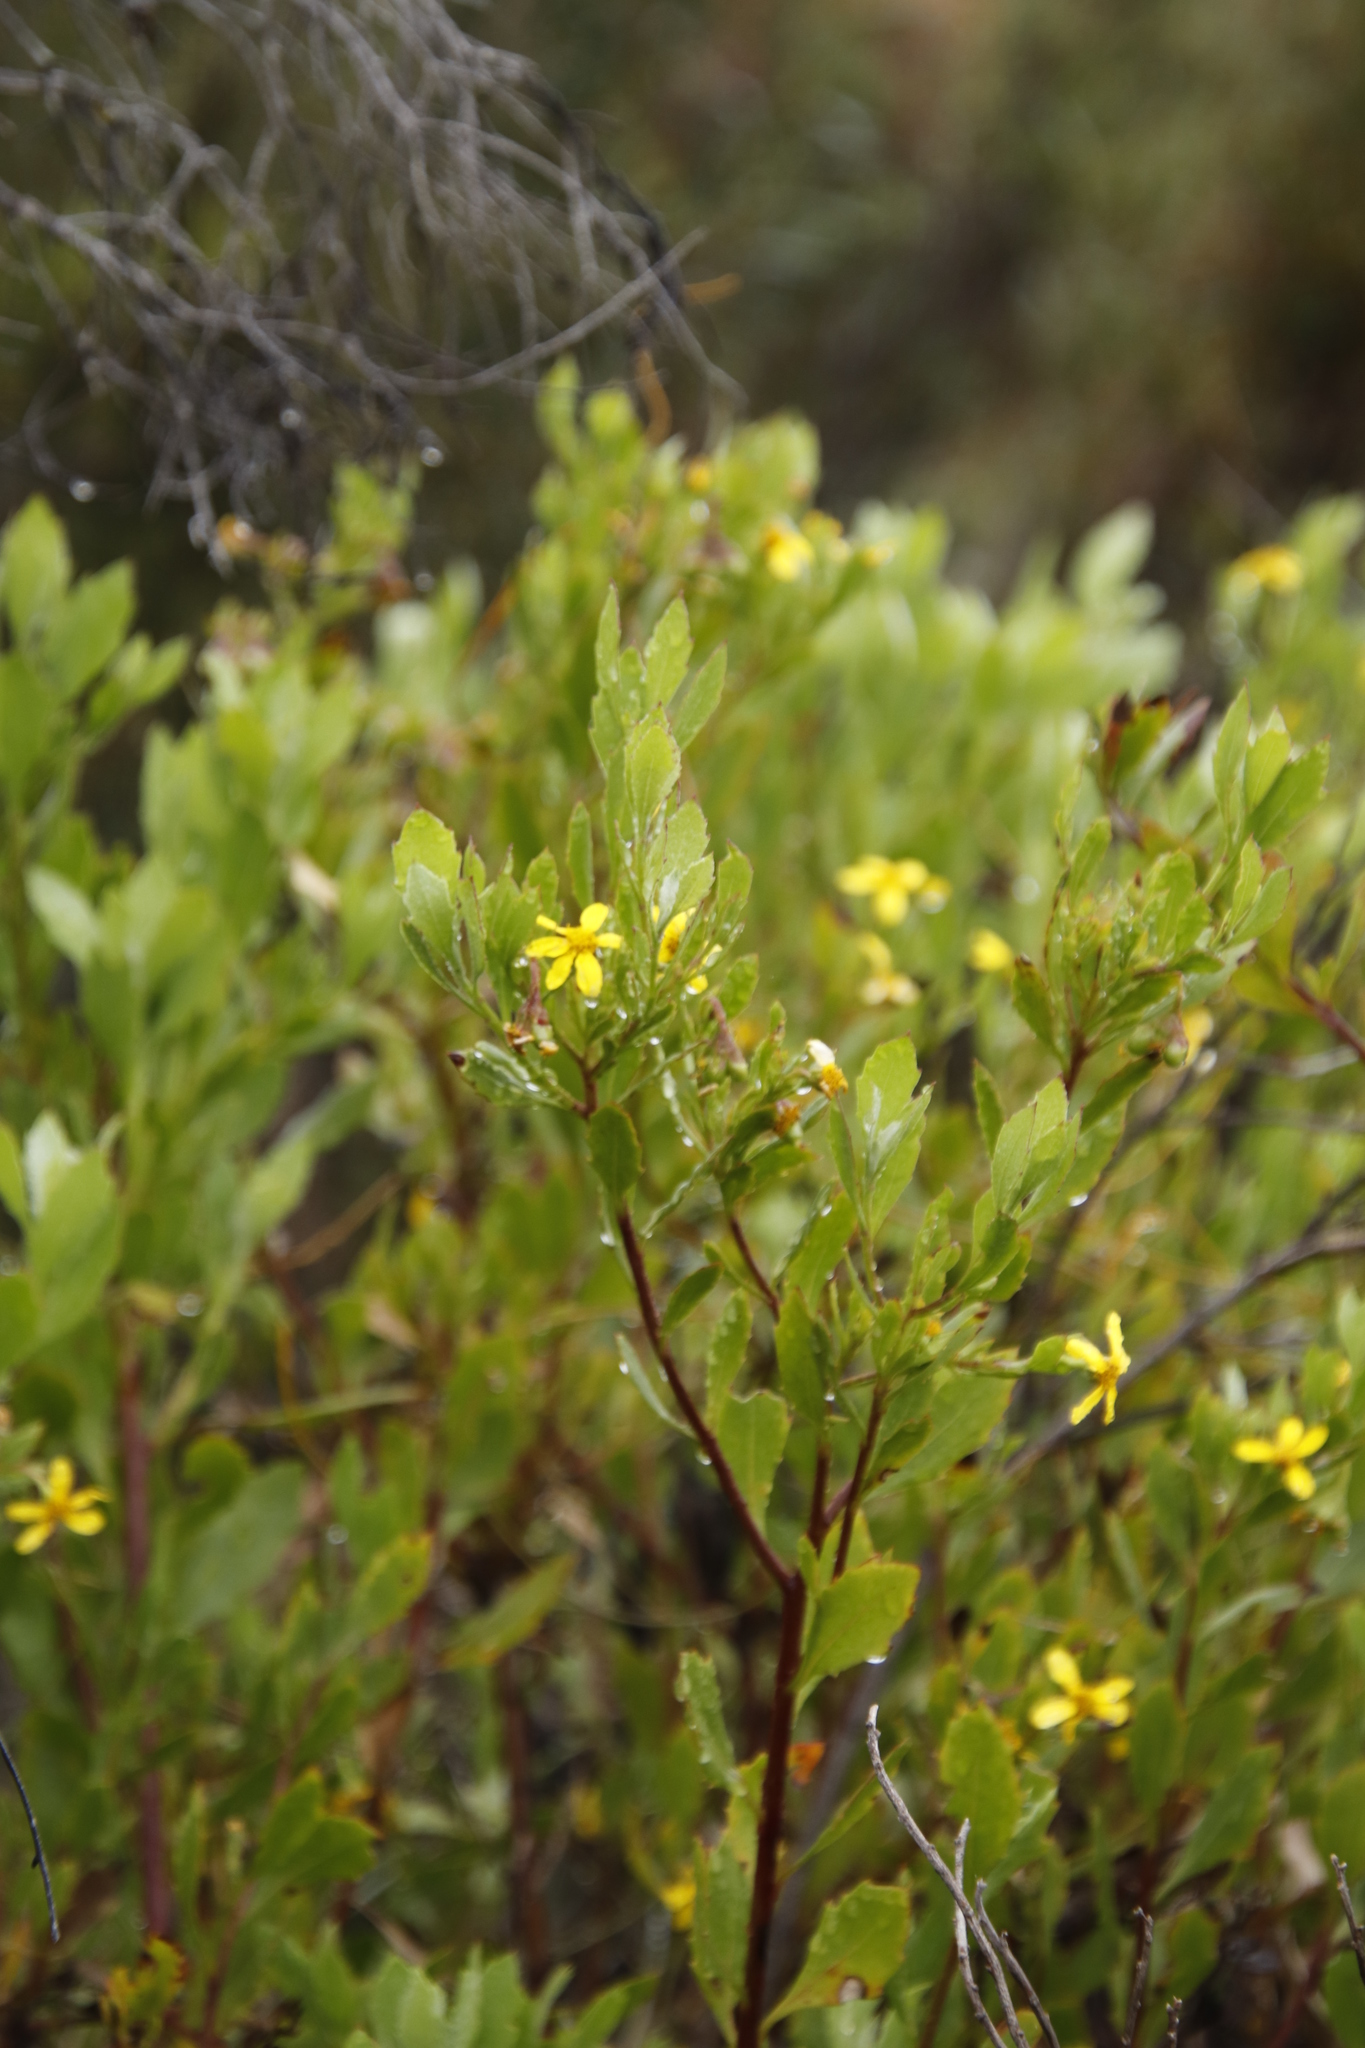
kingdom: Plantae
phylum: Tracheophyta
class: Magnoliopsida
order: Asterales
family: Asteraceae
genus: Osteospermum
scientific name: Osteospermum moniliferum
